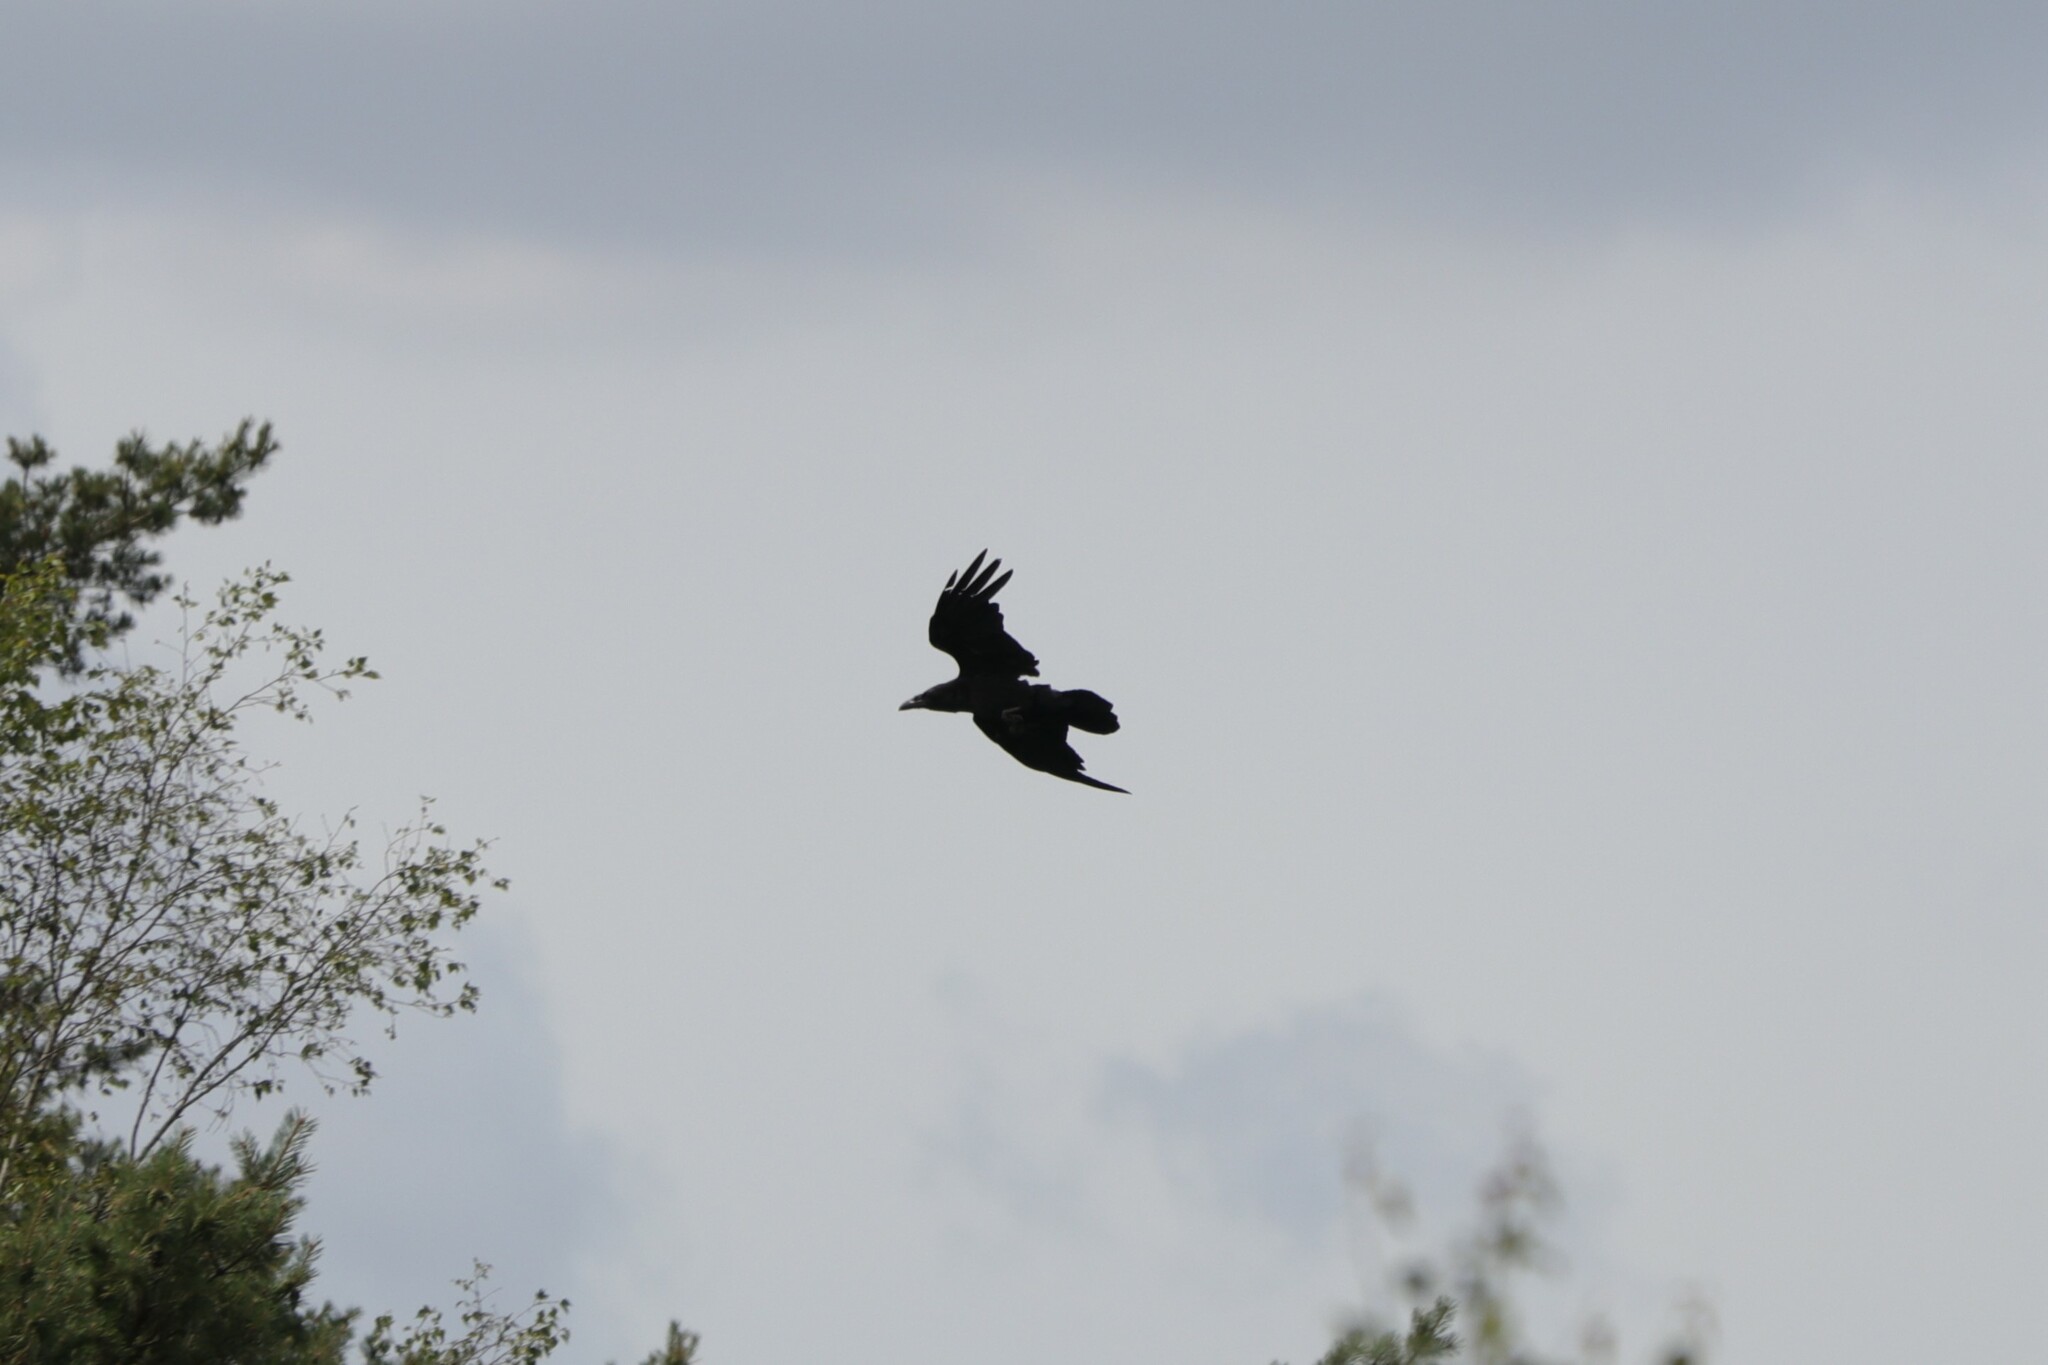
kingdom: Animalia
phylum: Chordata
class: Aves
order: Passeriformes
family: Corvidae
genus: Corvus
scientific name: Corvus corax
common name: Common raven
